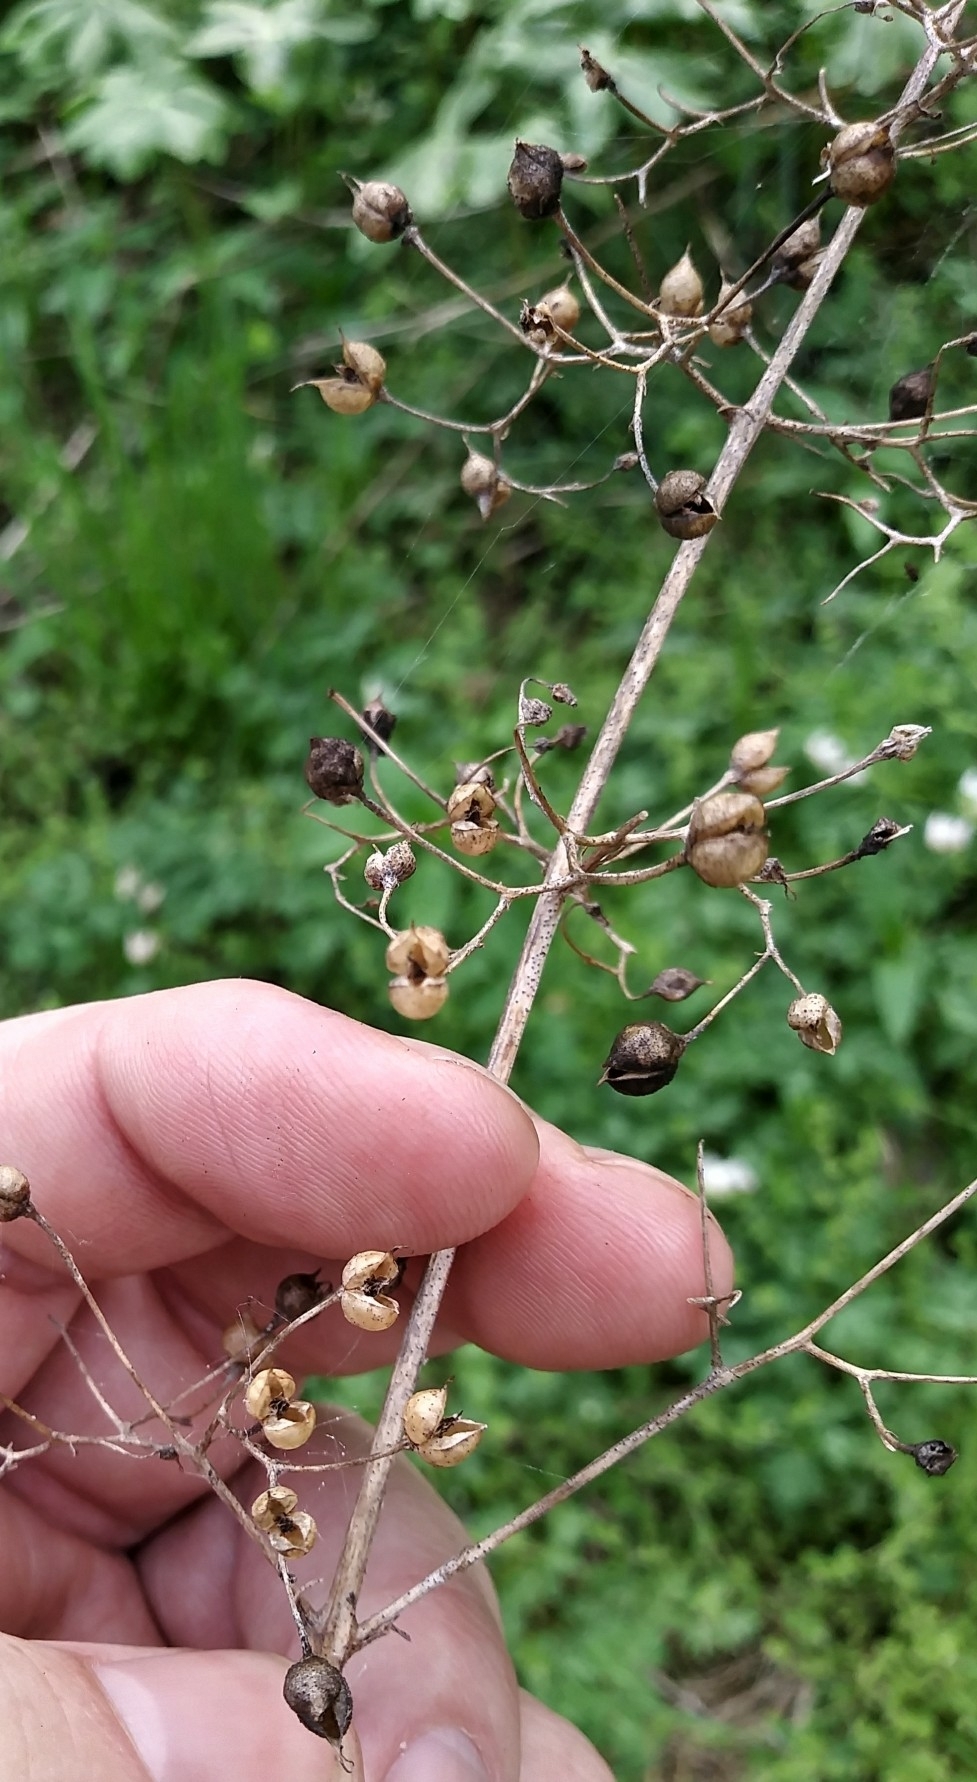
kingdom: Plantae
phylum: Tracheophyta
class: Magnoliopsida
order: Lamiales
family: Scrophulariaceae
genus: Scrophularia
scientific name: Scrophularia marilandica
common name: Eastern figwort
